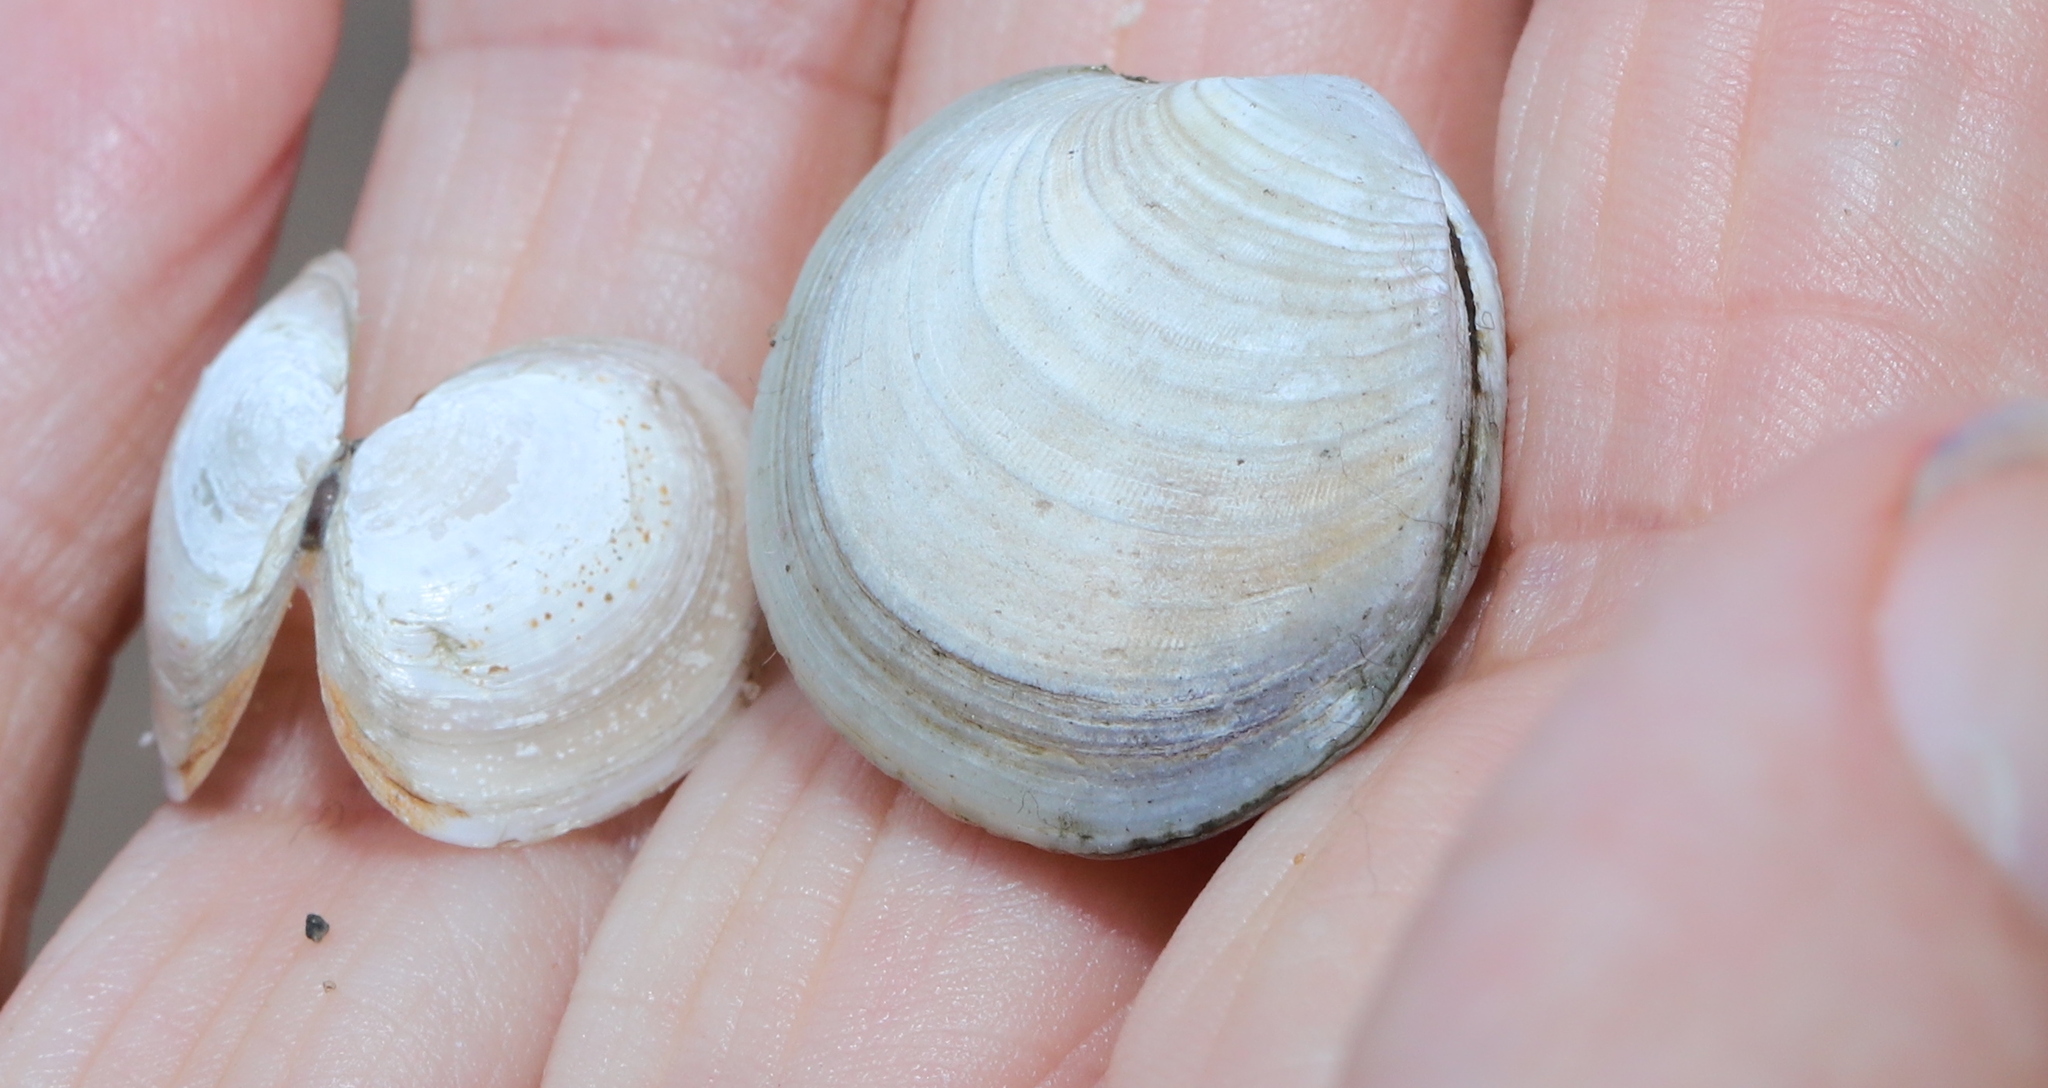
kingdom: Animalia
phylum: Mollusca
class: Bivalvia
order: Venerida
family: Veneridae
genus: Mercenaria
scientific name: Mercenaria mercenaria
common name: American hard-shelled clam
